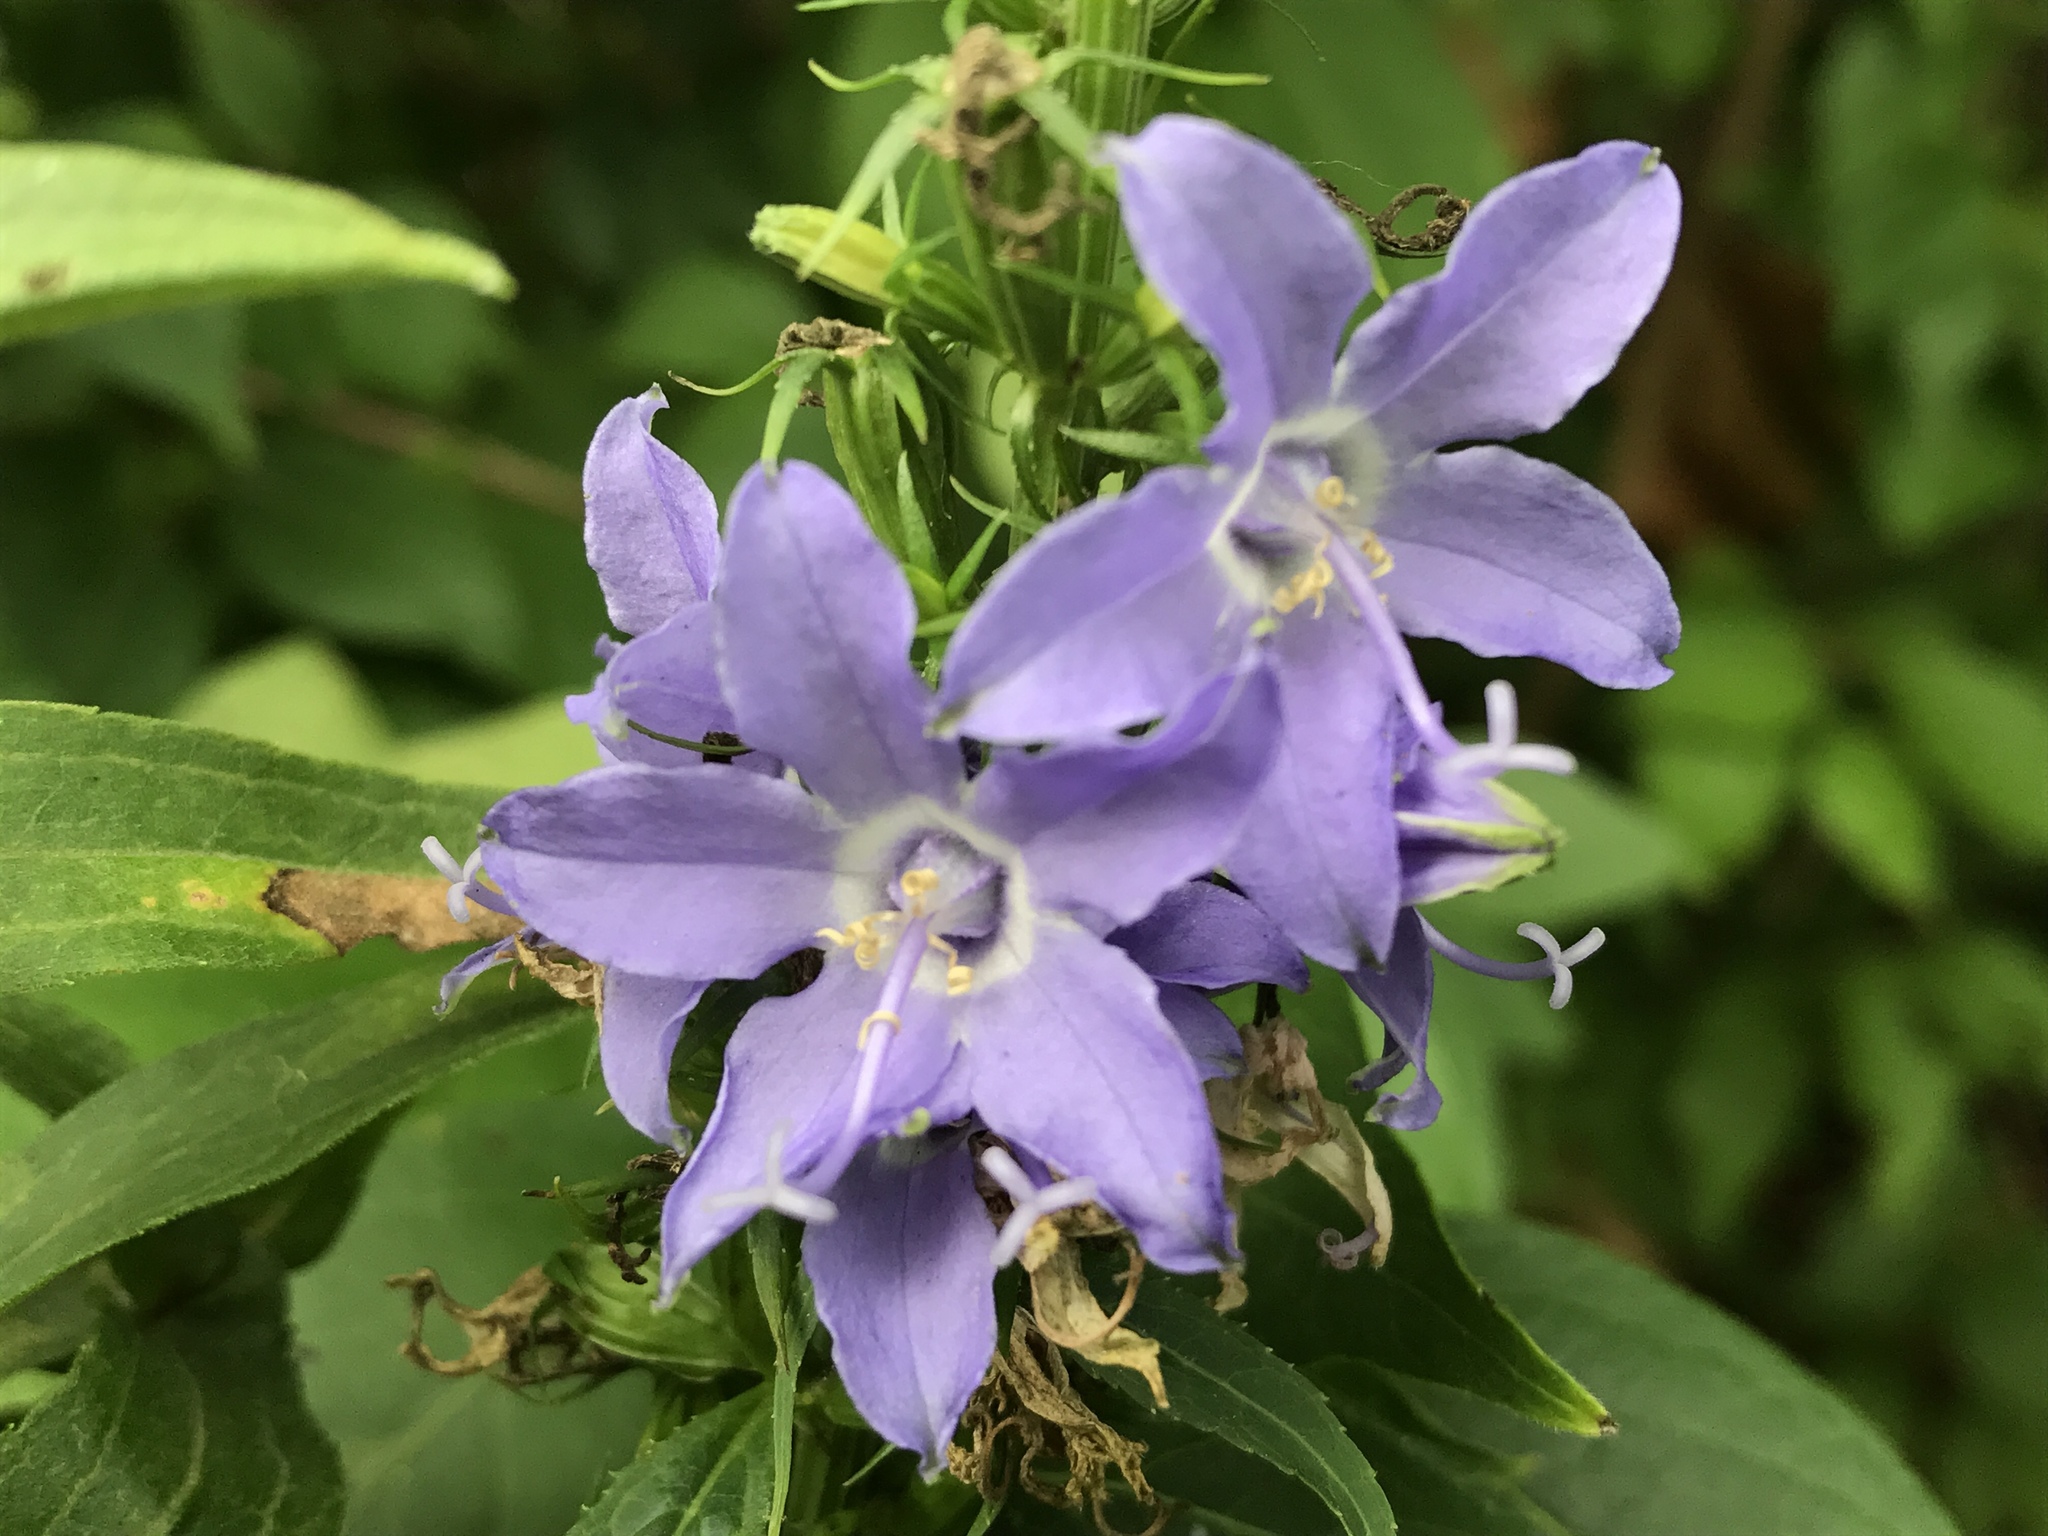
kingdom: Plantae
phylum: Tracheophyta
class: Magnoliopsida
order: Asterales
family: Campanulaceae
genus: Campanulastrum
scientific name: Campanulastrum americanum
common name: American bellflower
